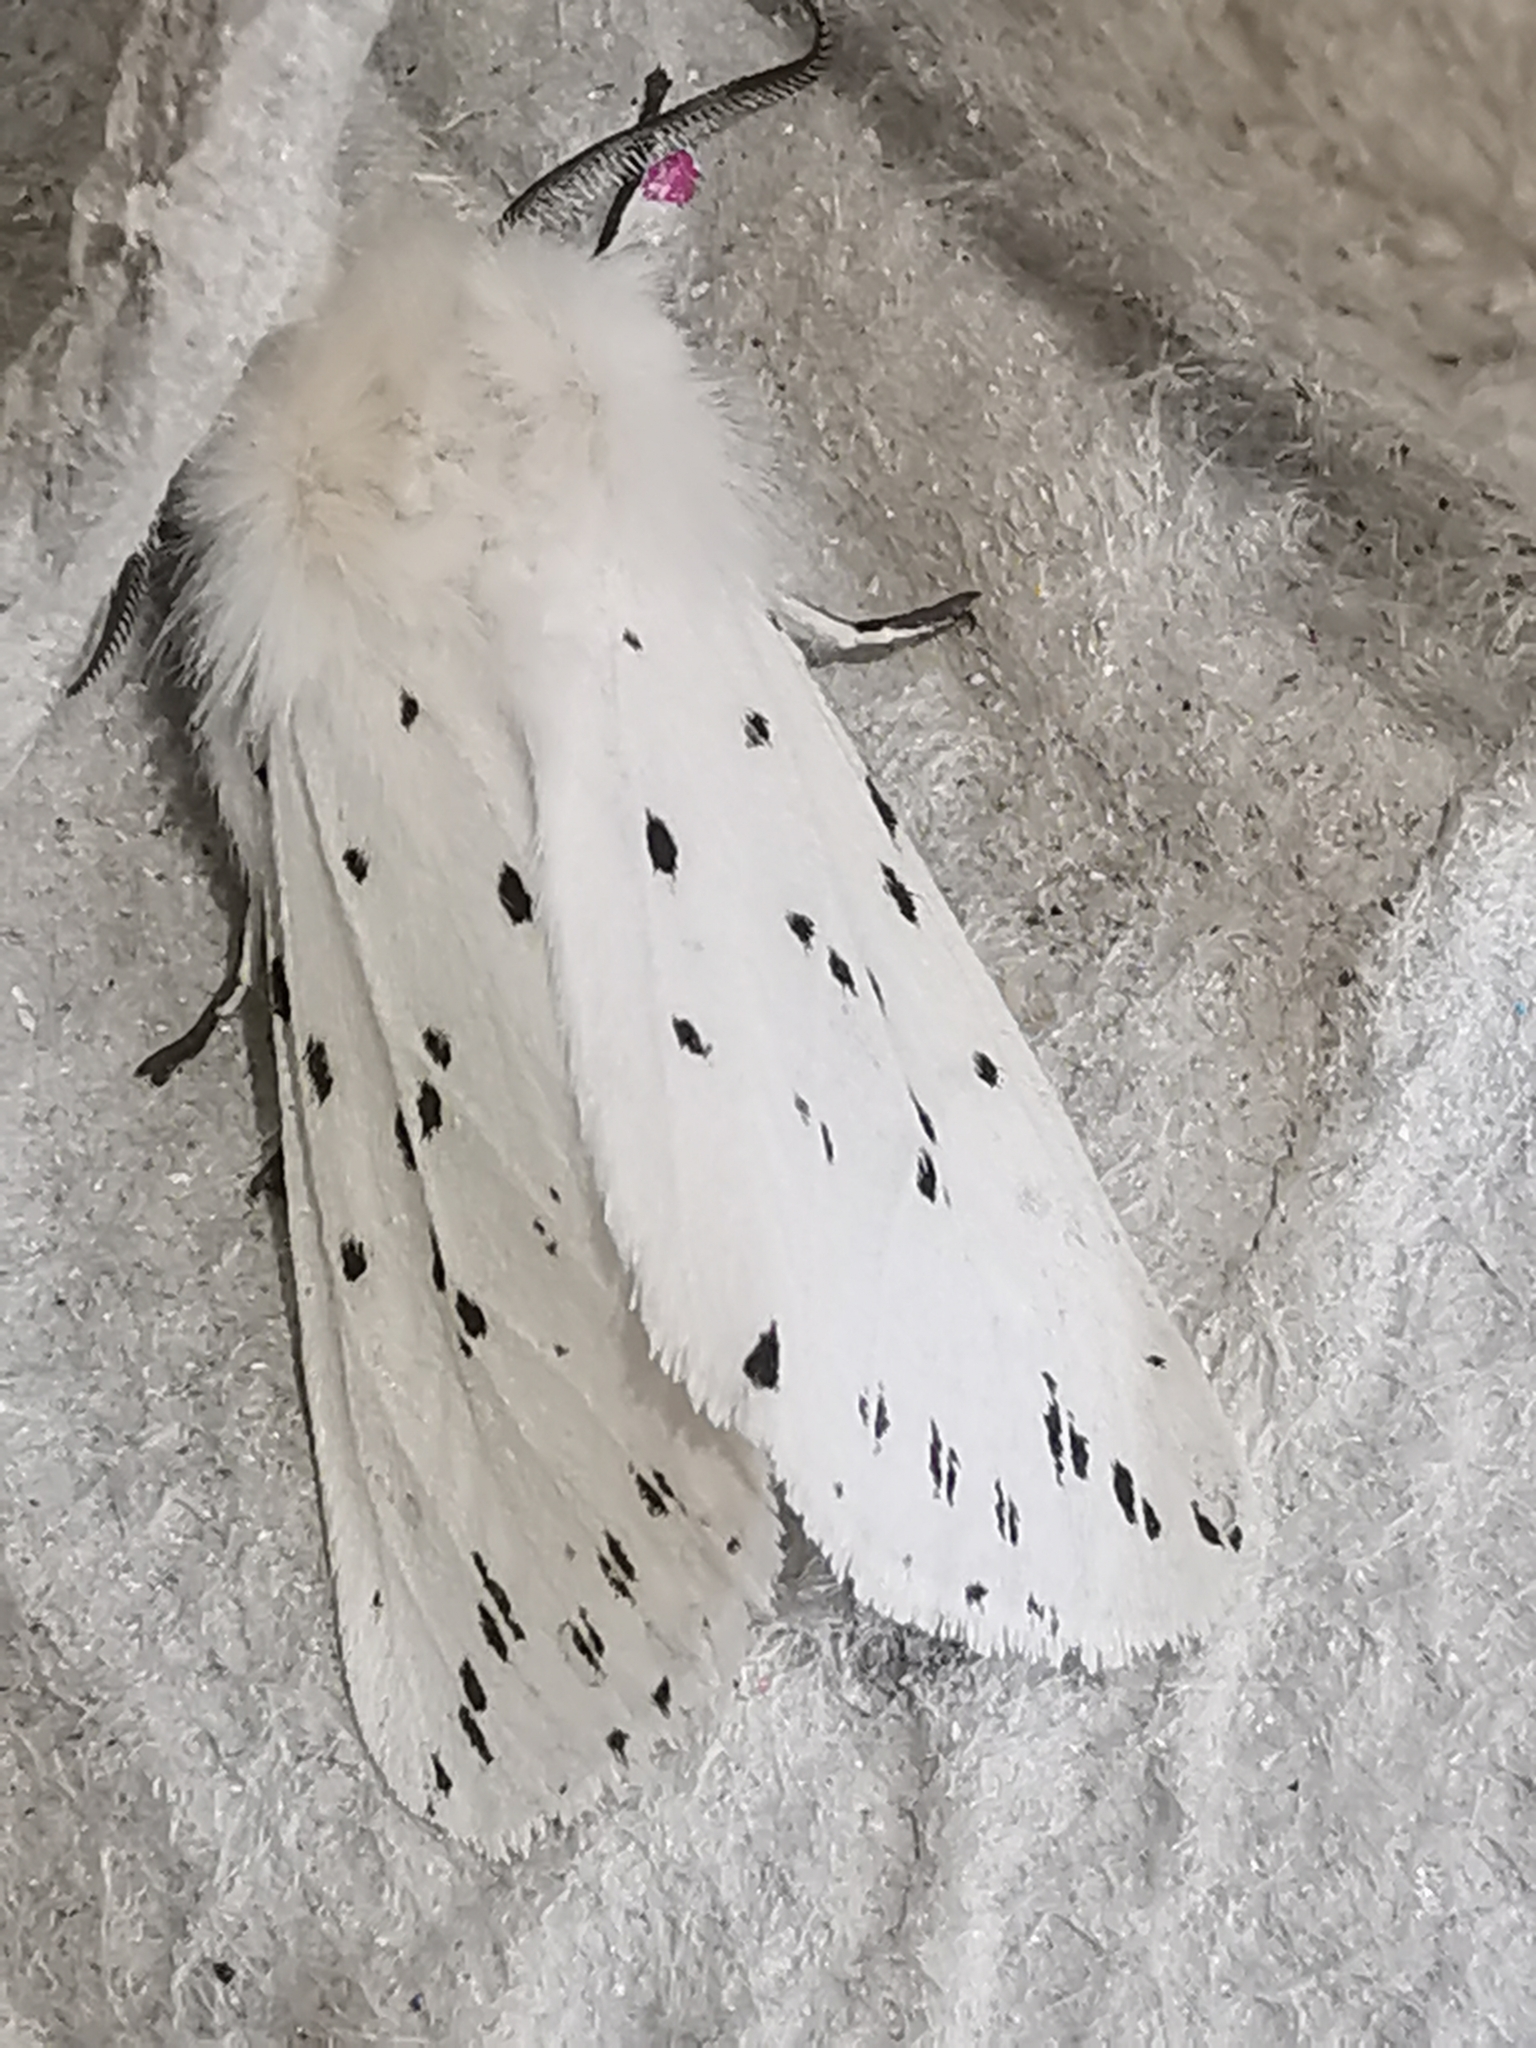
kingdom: Animalia
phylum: Arthropoda
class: Insecta
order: Lepidoptera
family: Erebidae
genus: Spilosoma
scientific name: Spilosoma lubricipeda
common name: White ermine
